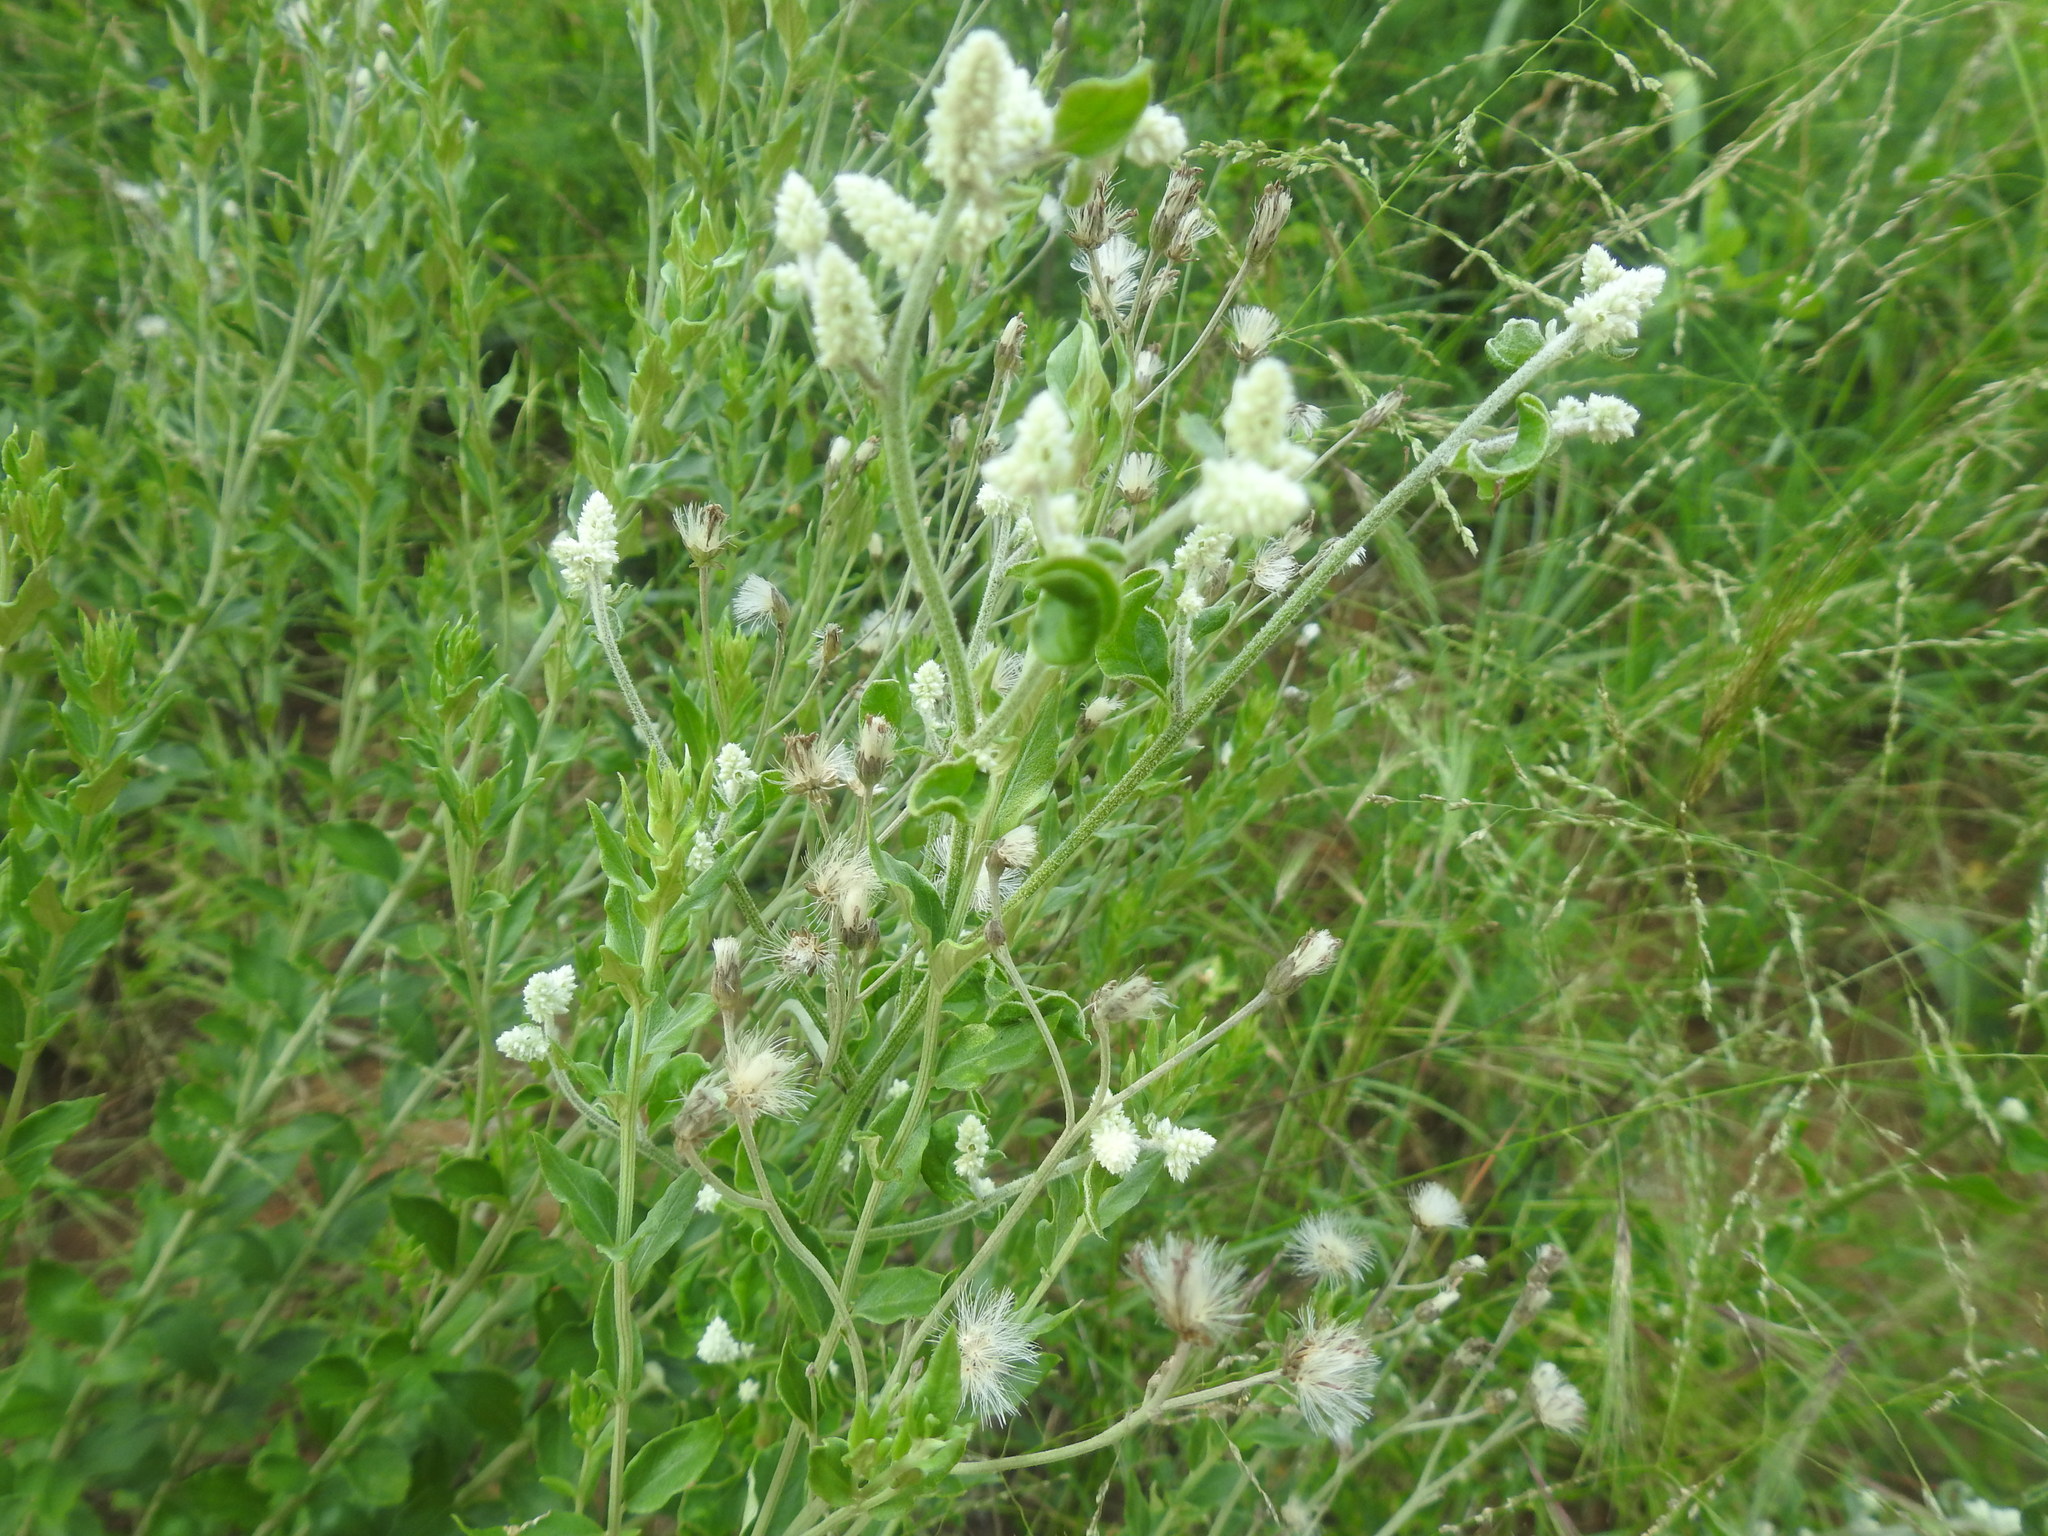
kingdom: Plantae
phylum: Tracheophyta
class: Magnoliopsida
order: Caryophyllales
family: Amaranthaceae
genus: Ouret
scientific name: Ouret leucura
